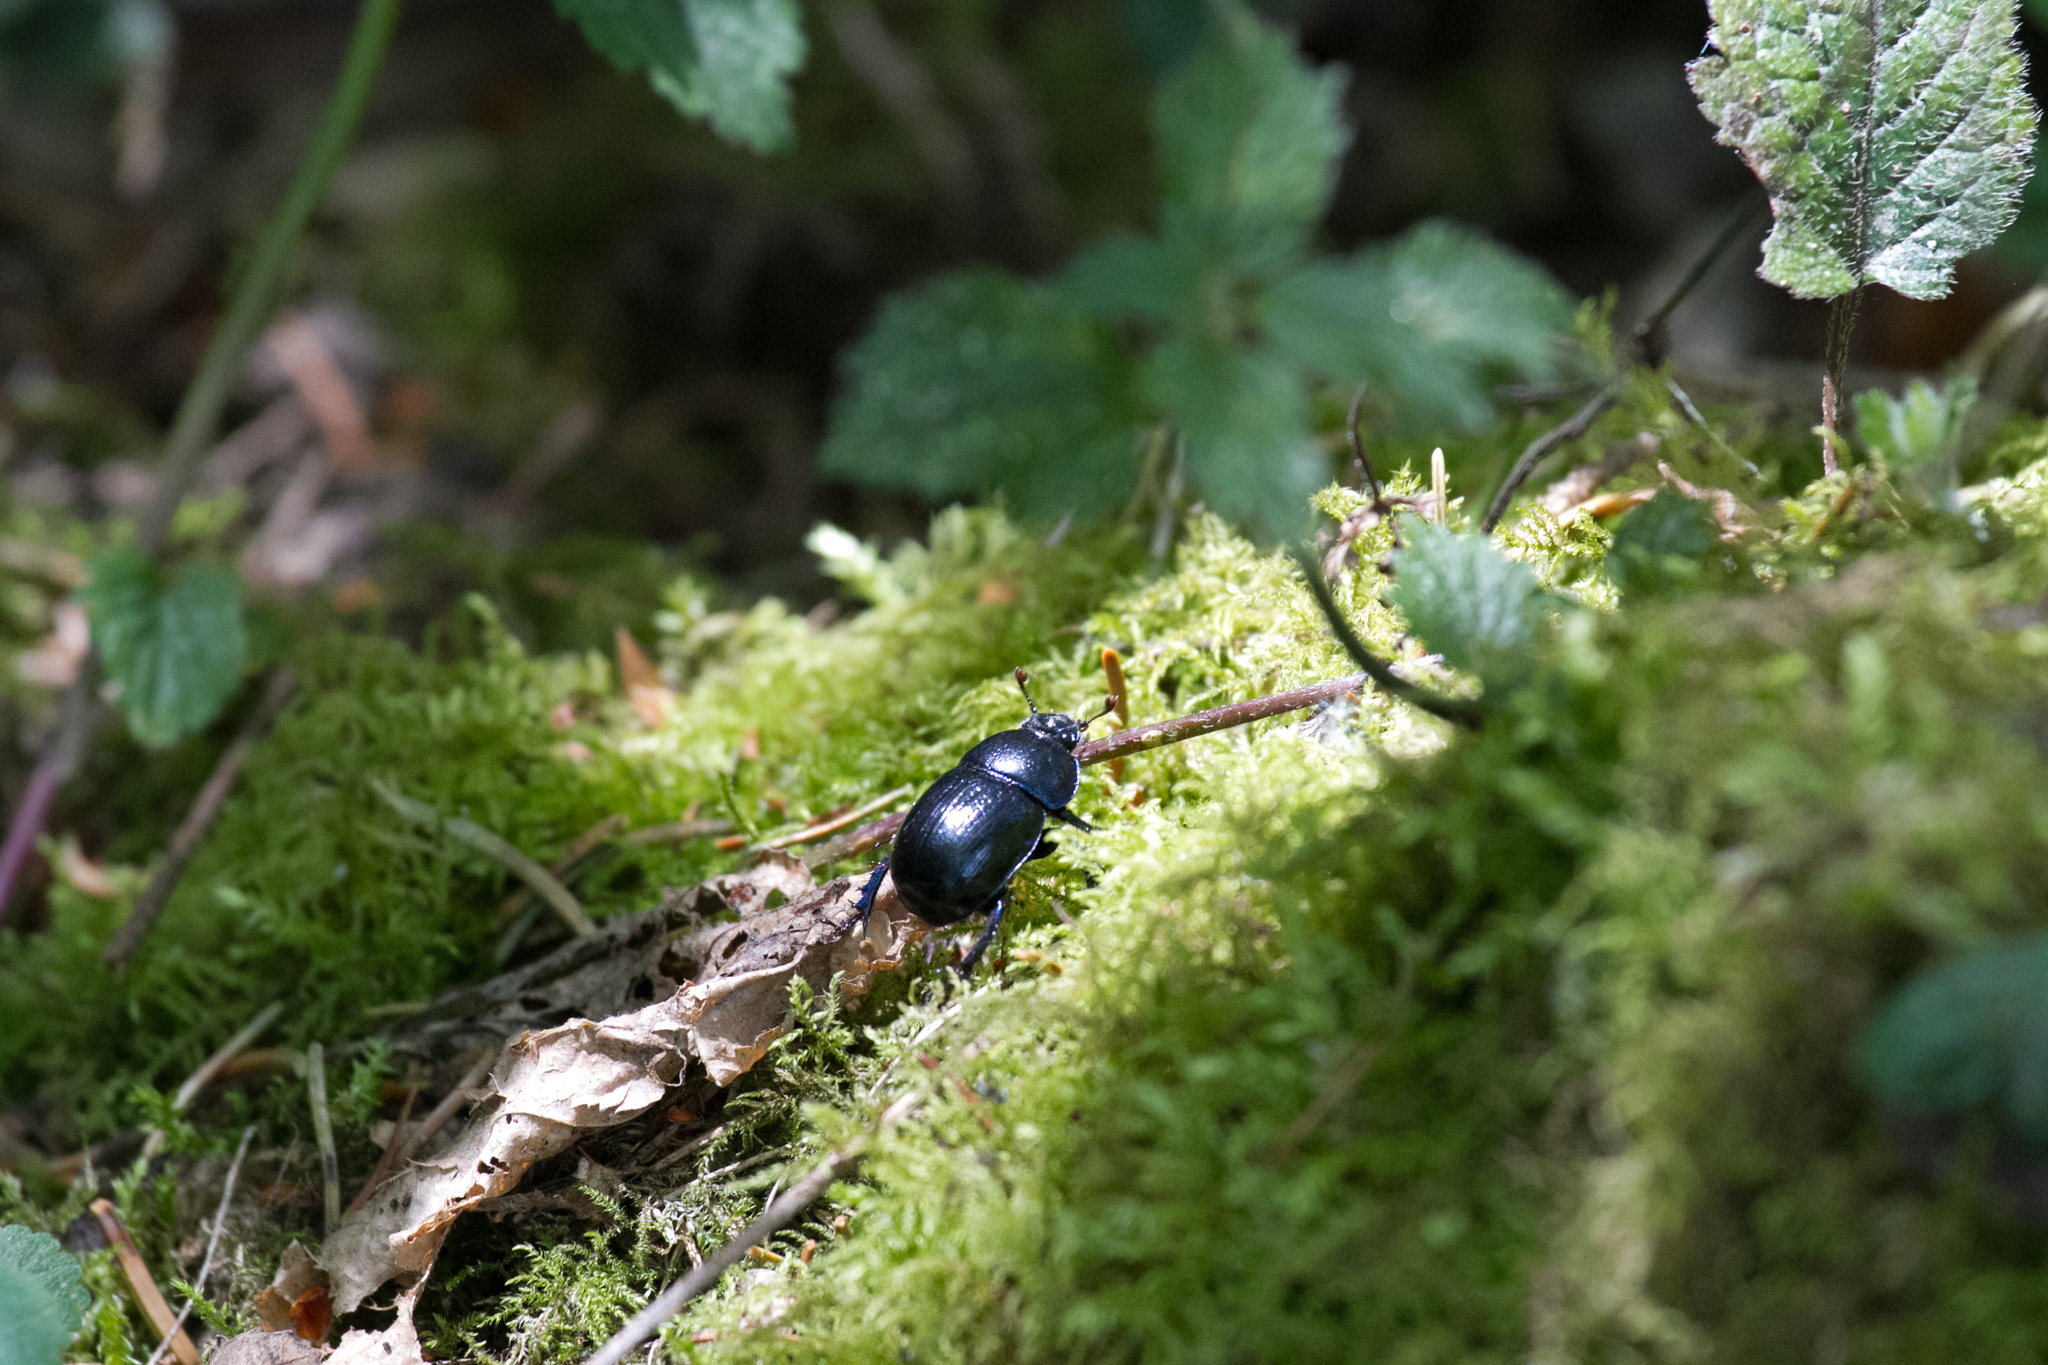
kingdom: Animalia
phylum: Arthropoda
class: Insecta
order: Coleoptera
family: Geotrupidae
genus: Anoplotrupes
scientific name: Anoplotrupes stercorosus
